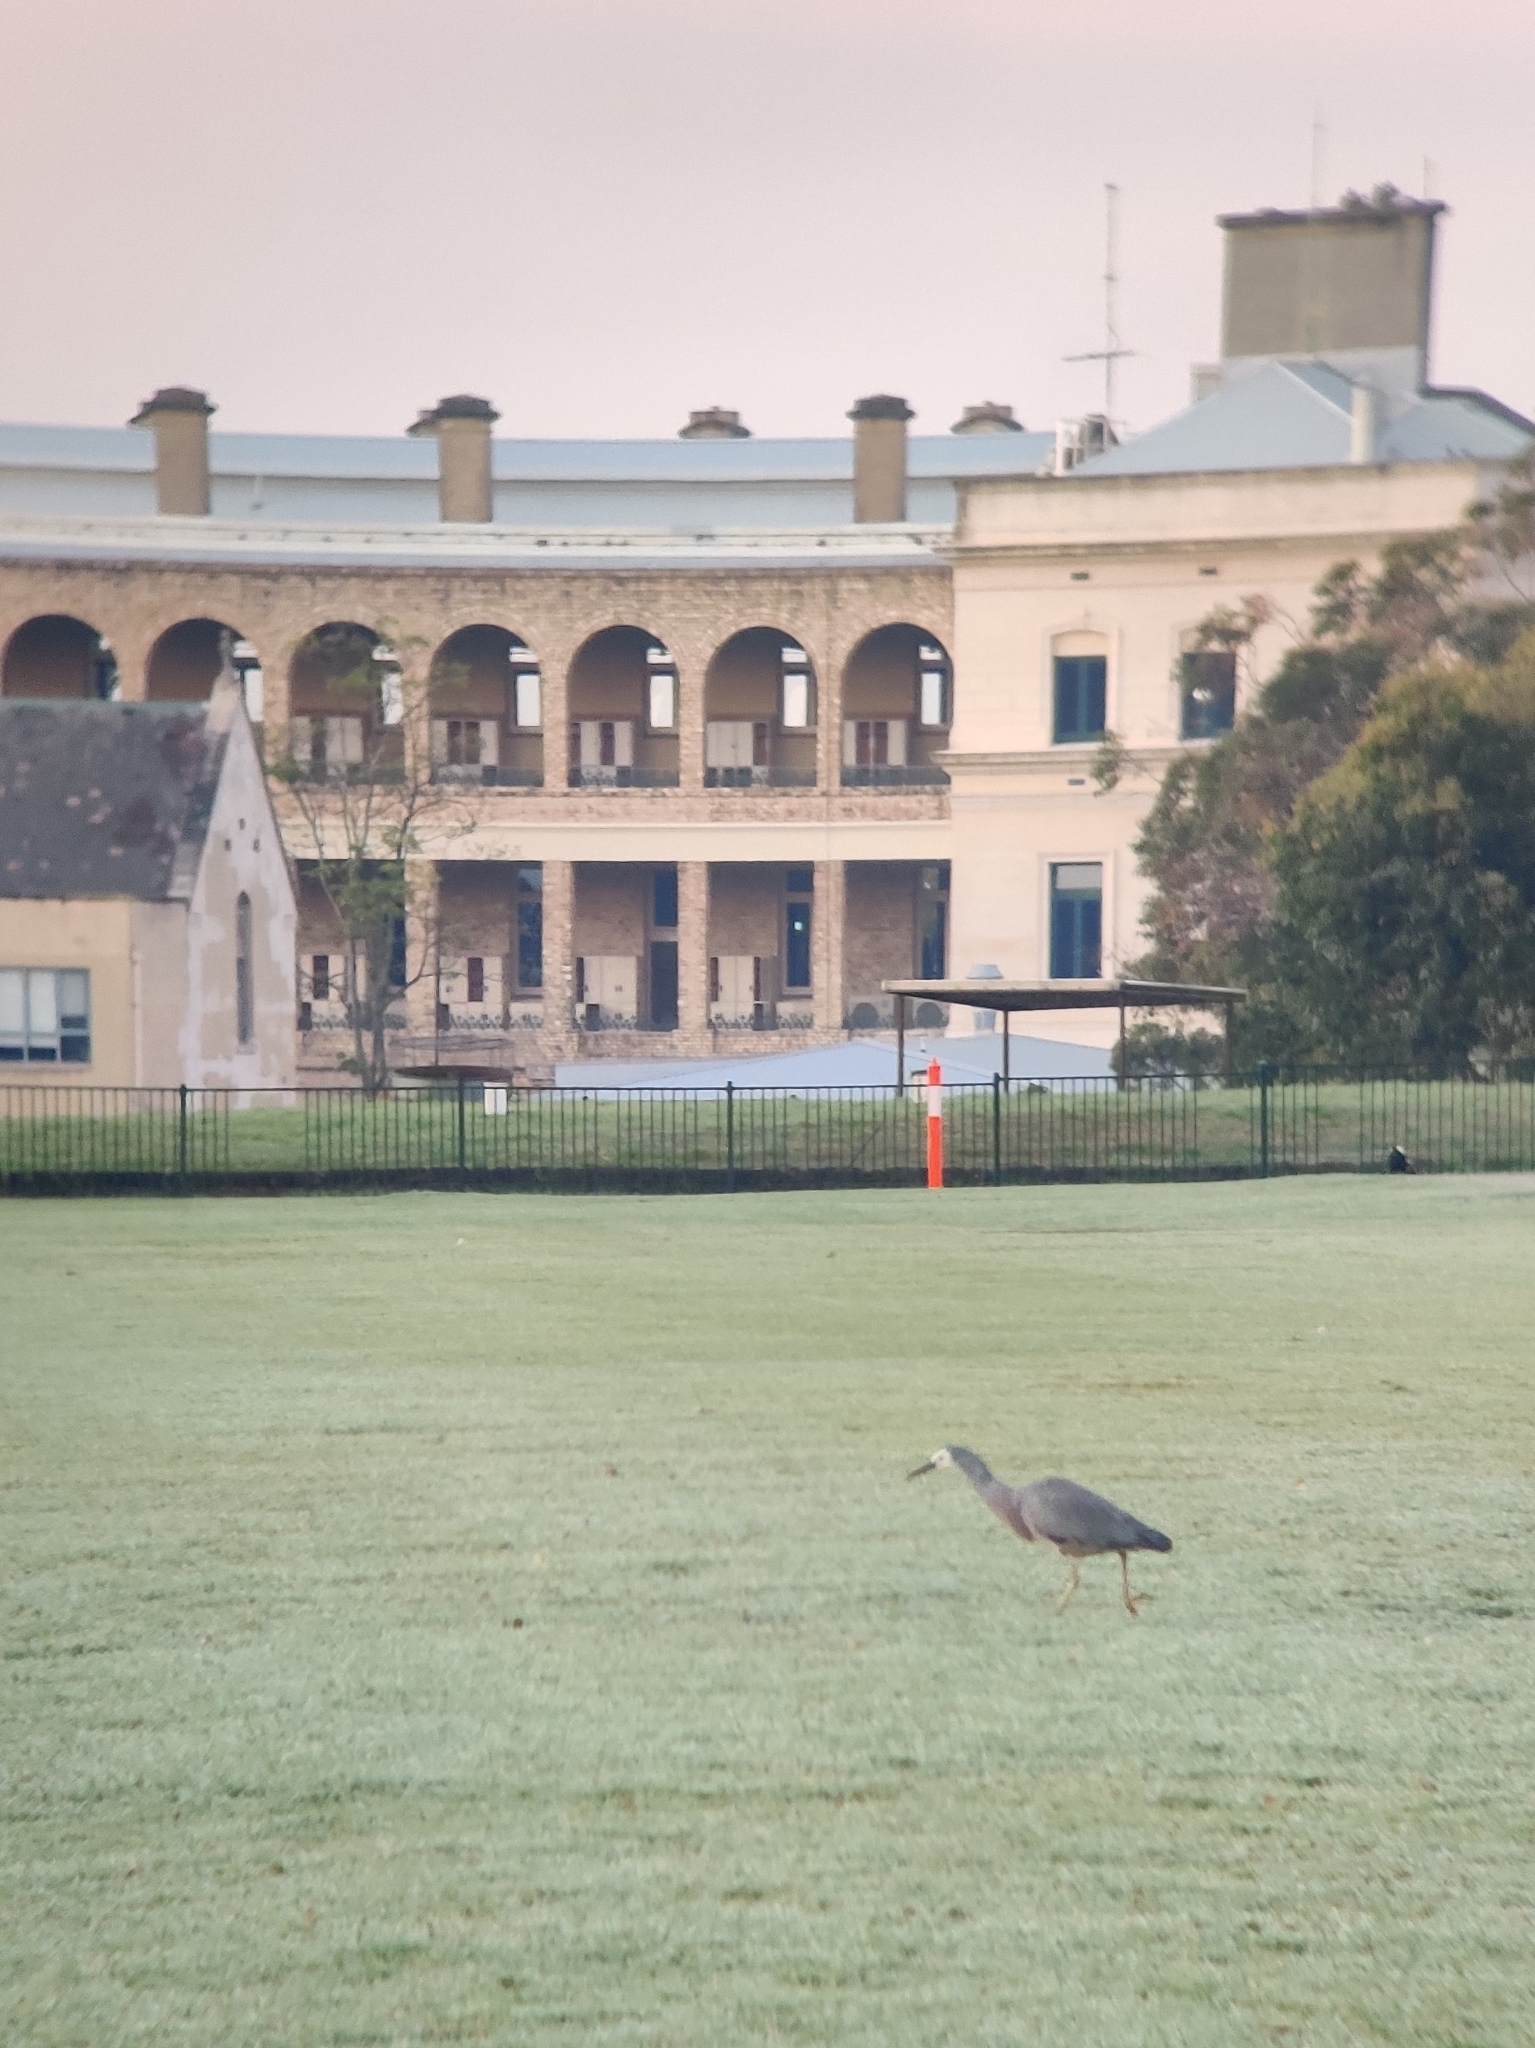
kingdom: Animalia
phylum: Chordata
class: Aves
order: Pelecaniformes
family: Ardeidae
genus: Egretta
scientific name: Egretta novaehollandiae
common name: White-faced heron
